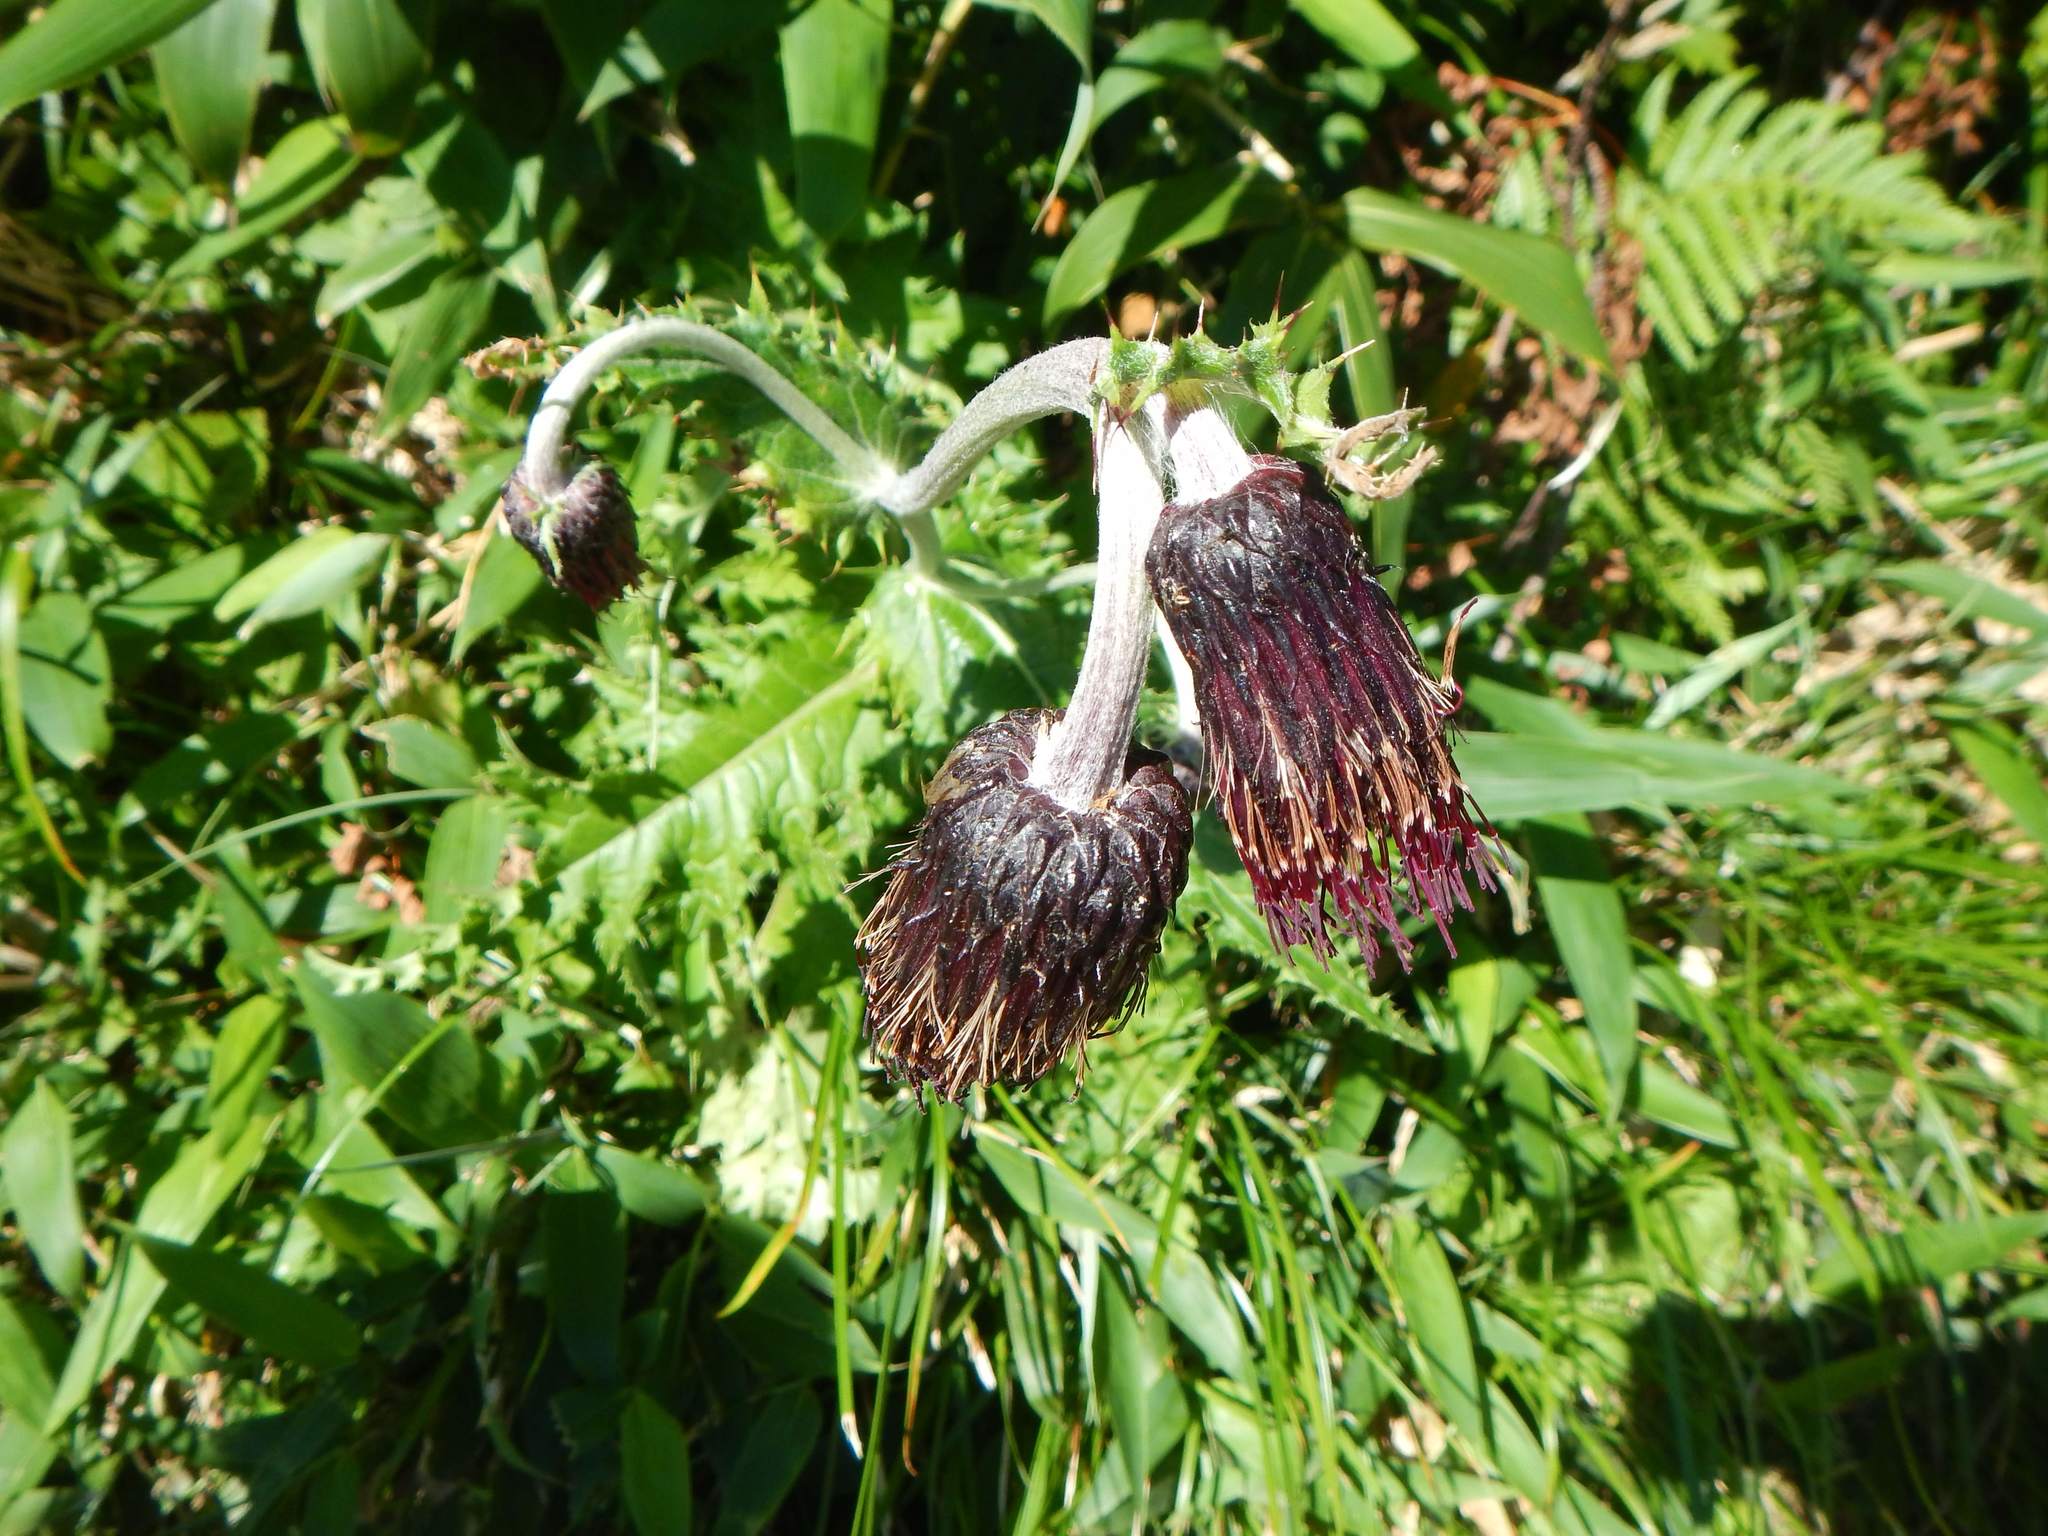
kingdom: Plantae
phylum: Tracheophyta
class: Magnoliopsida
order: Asterales
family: Asteraceae
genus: Cirsium
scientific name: Cirsium chokaiense
